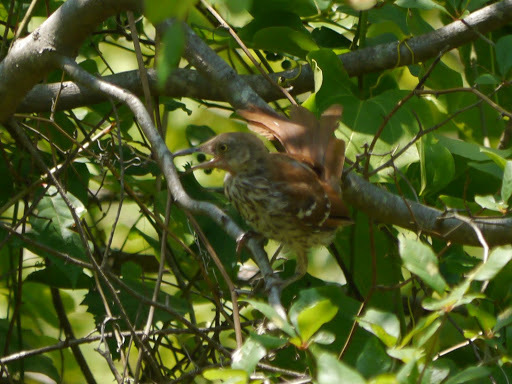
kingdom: Animalia
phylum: Chordata
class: Aves
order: Passeriformes
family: Mimidae
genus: Toxostoma
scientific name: Toxostoma rufum
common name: Brown thrasher
